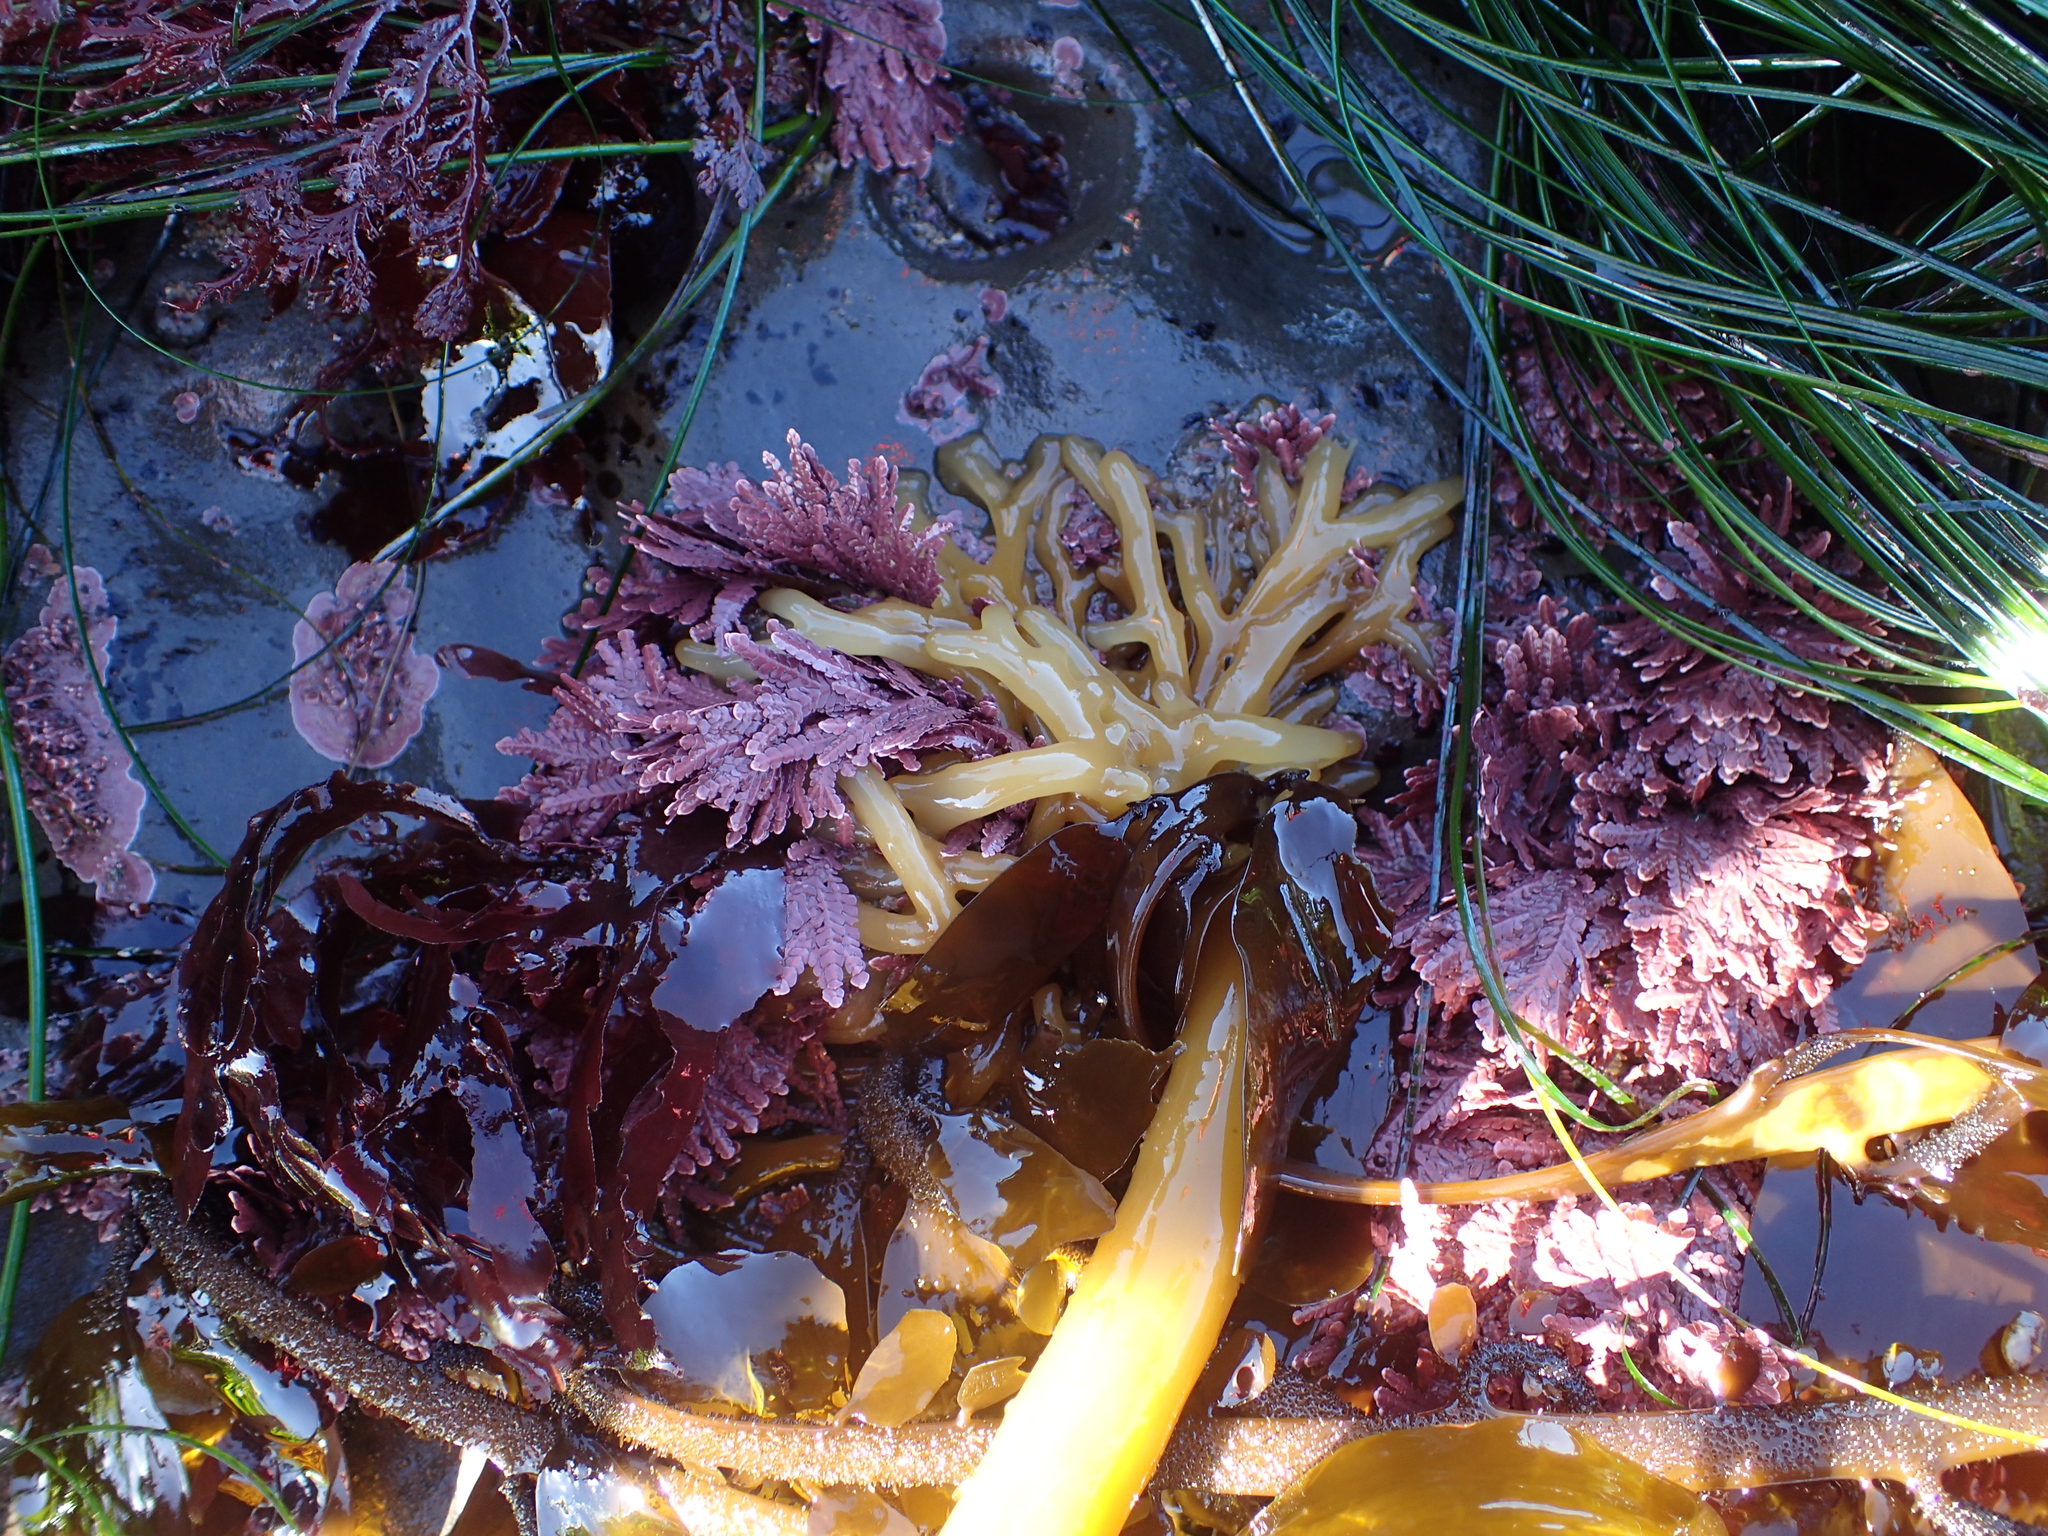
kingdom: Chromista
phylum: Ochrophyta
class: Phaeophyceae
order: Laminariales
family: Laminariaceae
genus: Nereocystis
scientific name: Nereocystis luetkeana
